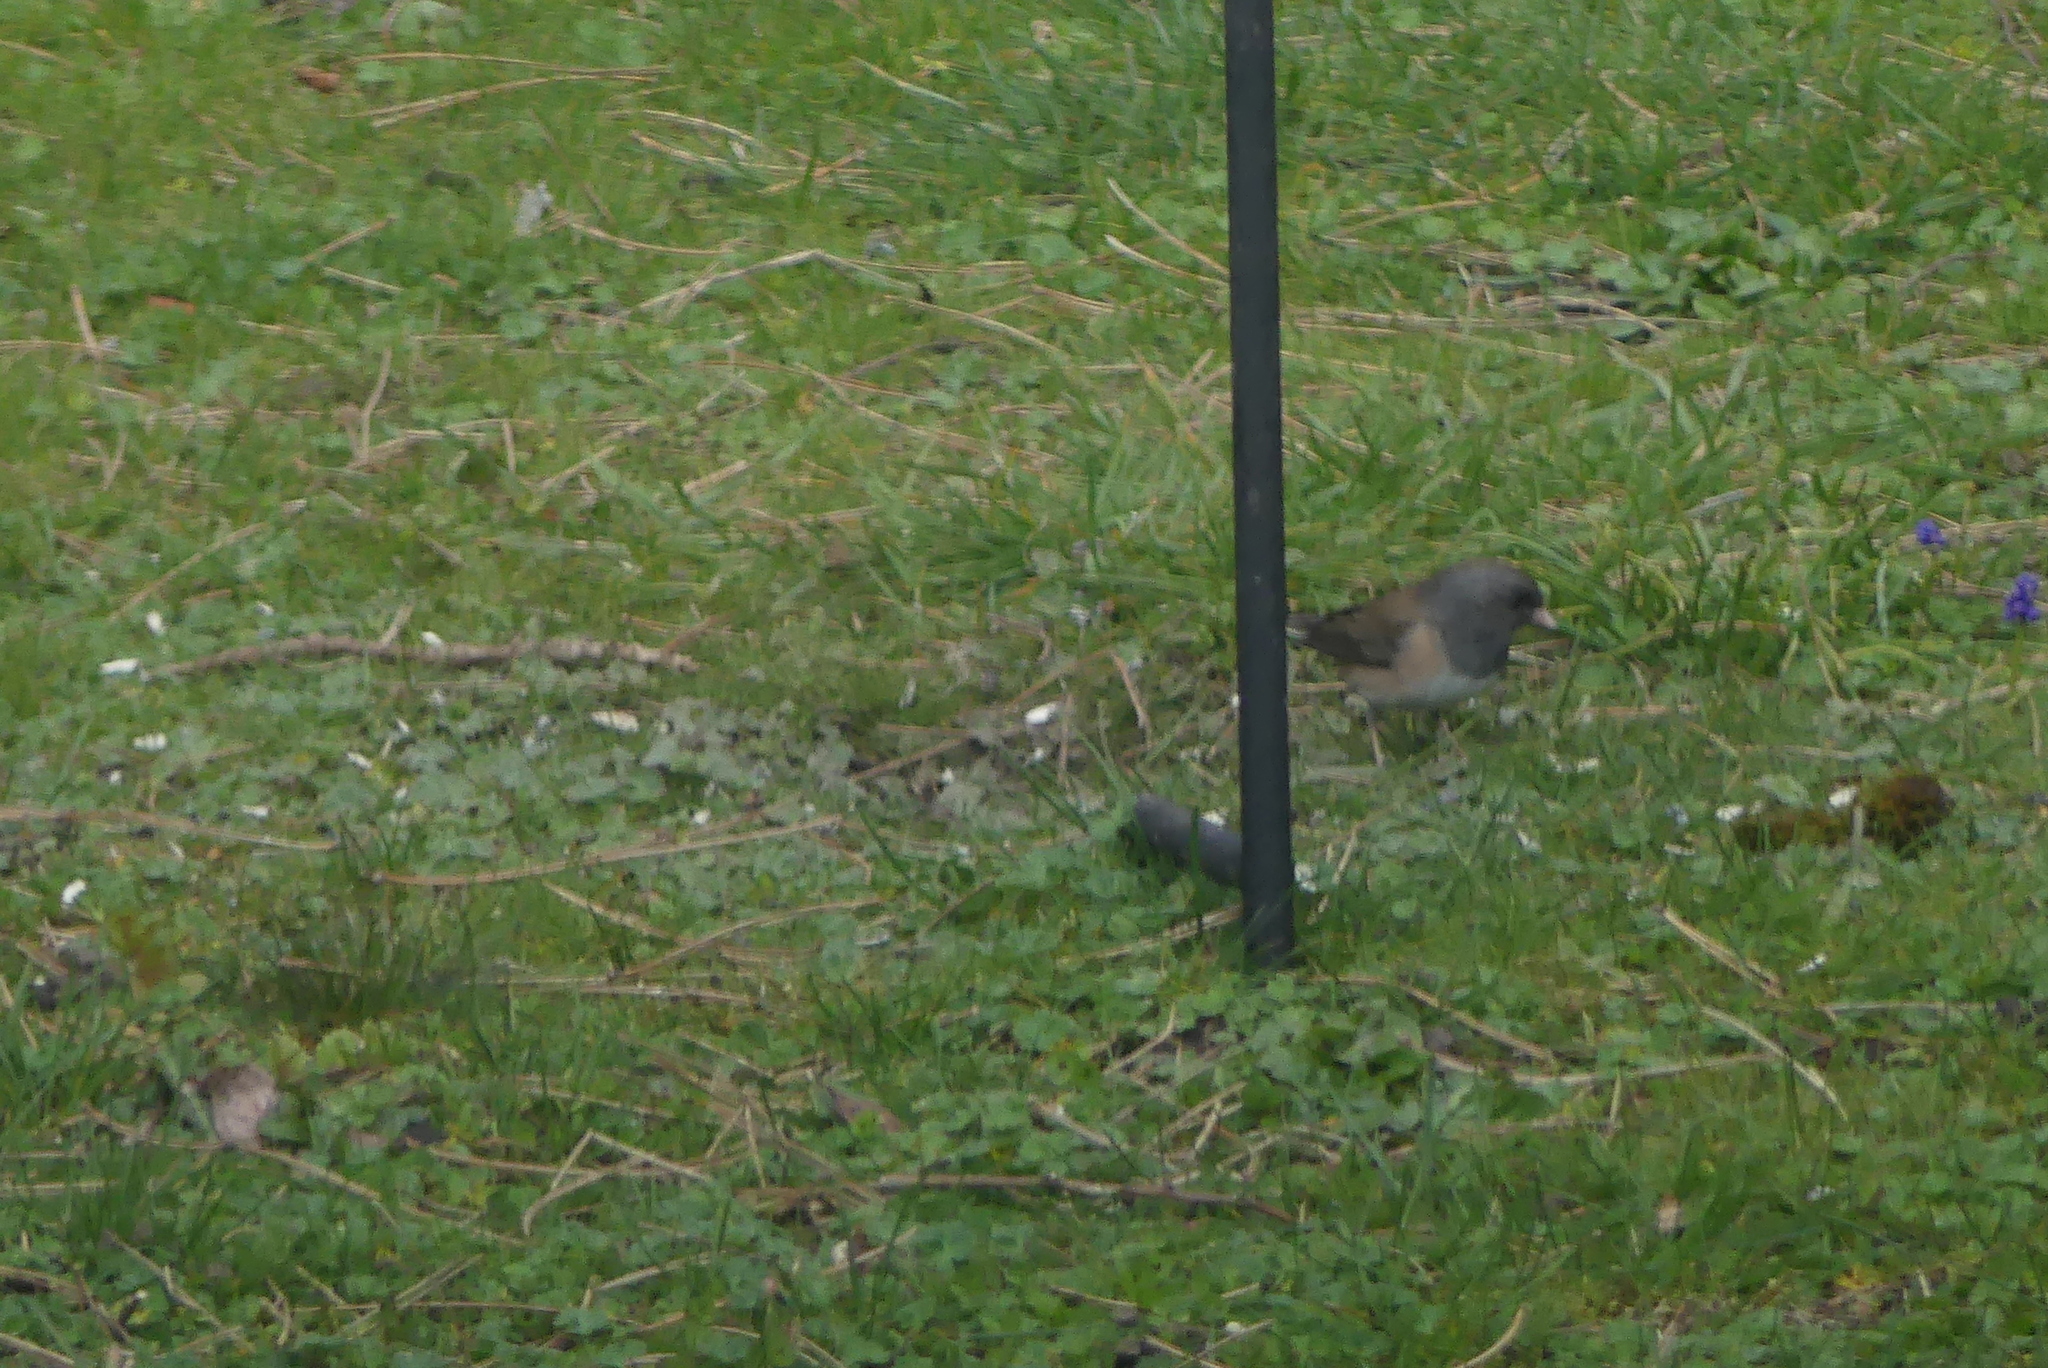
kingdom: Animalia
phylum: Chordata
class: Aves
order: Passeriformes
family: Passerellidae
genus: Junco
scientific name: Junco hyemalis
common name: Dark-eyed junco
